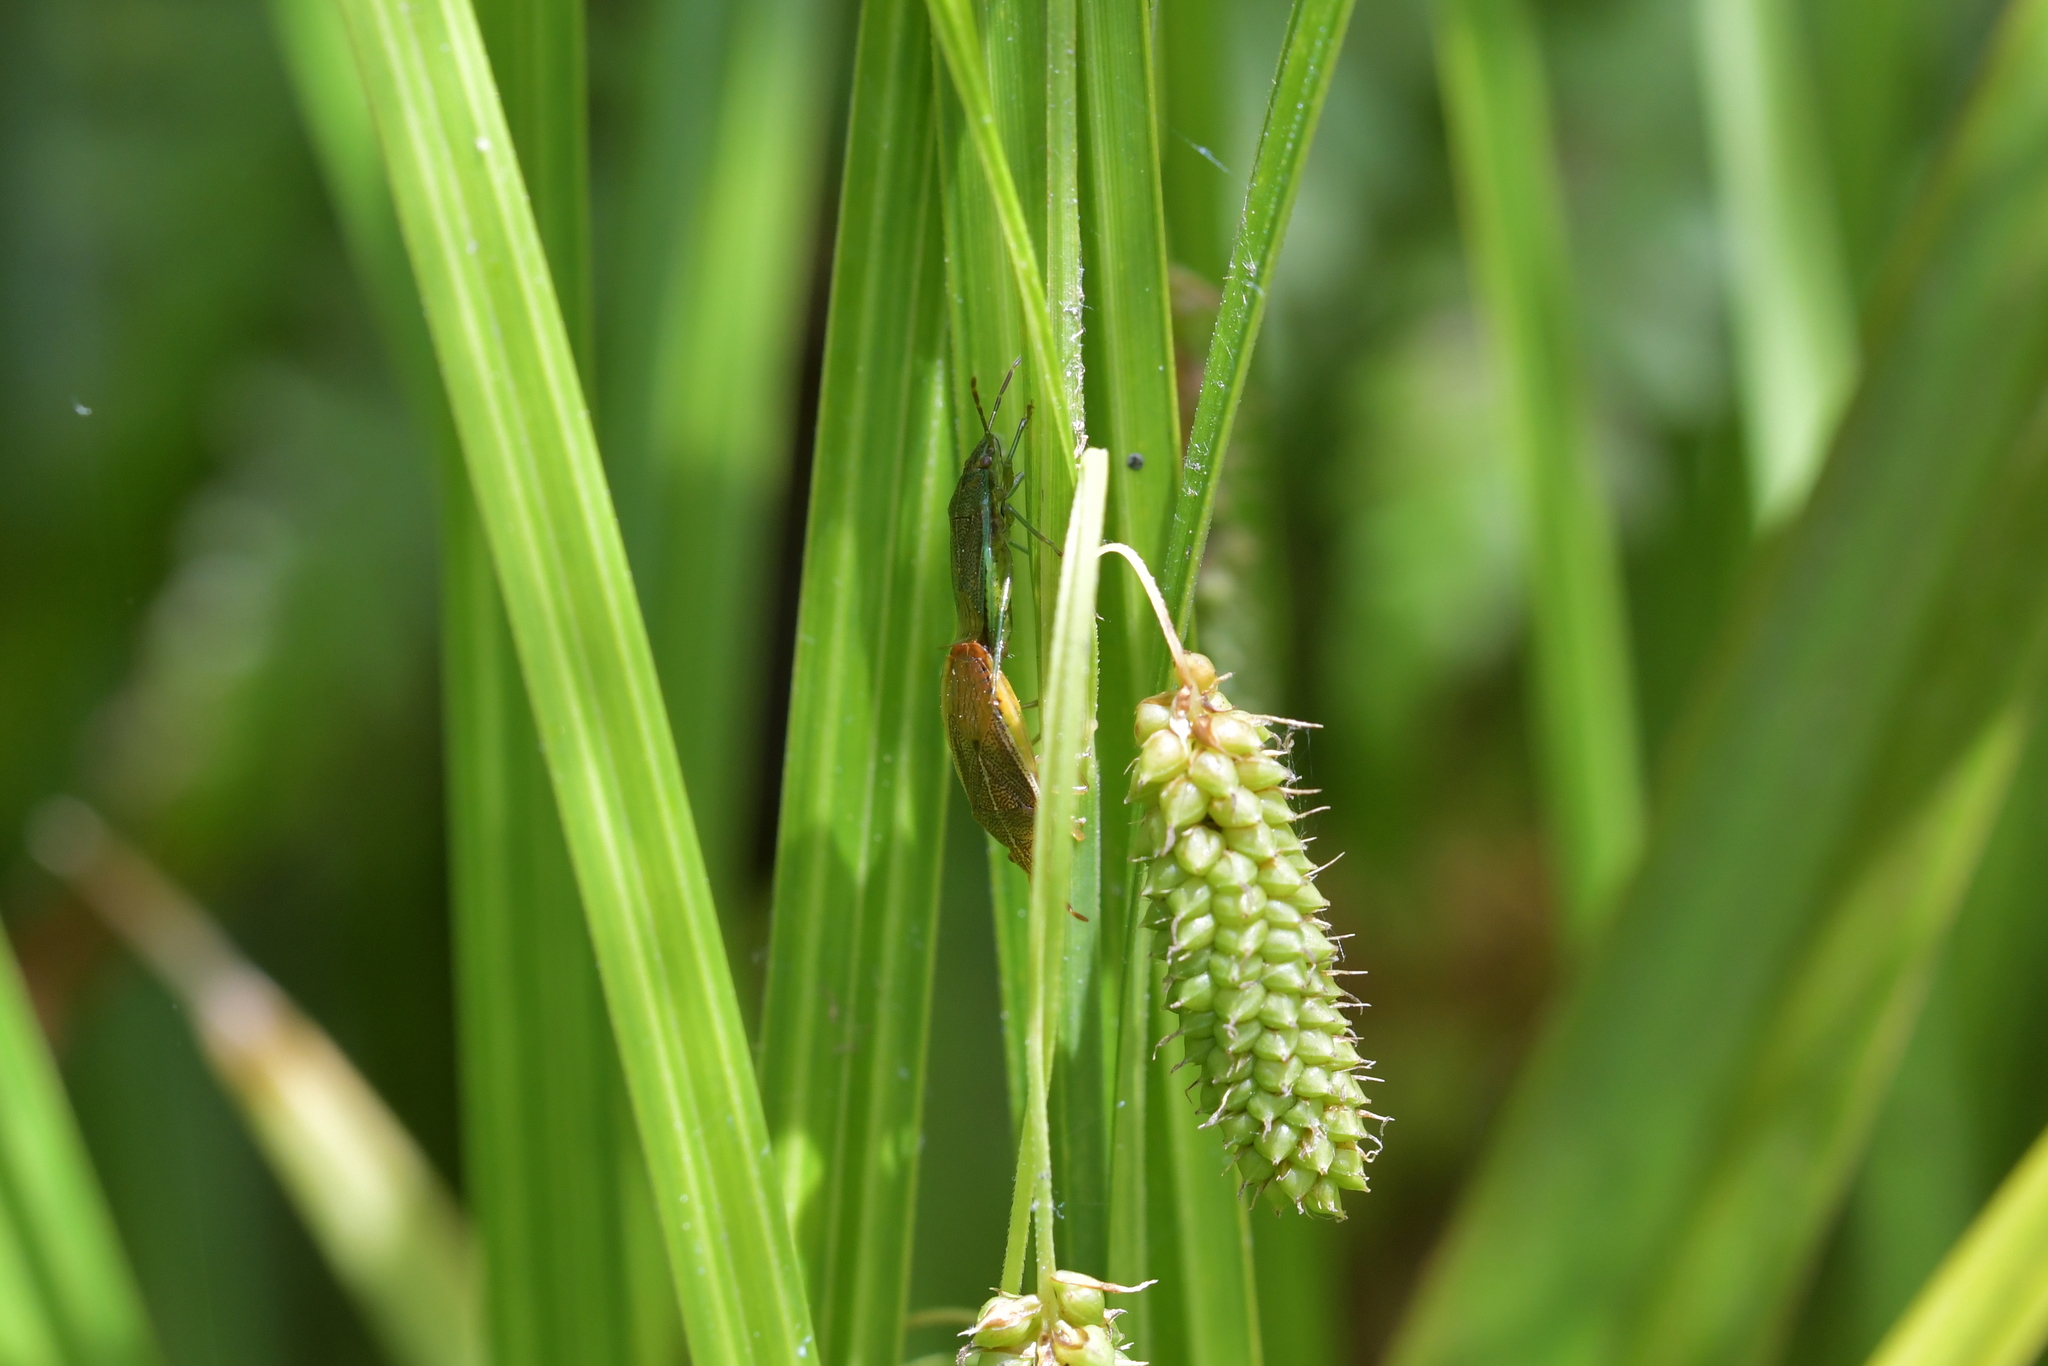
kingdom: Animalia
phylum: Arthropoda
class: Insecta
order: Hemiptera
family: Acanthosomatidae
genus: Rhopalimorpha
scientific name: Rhopalimorpha obscura
